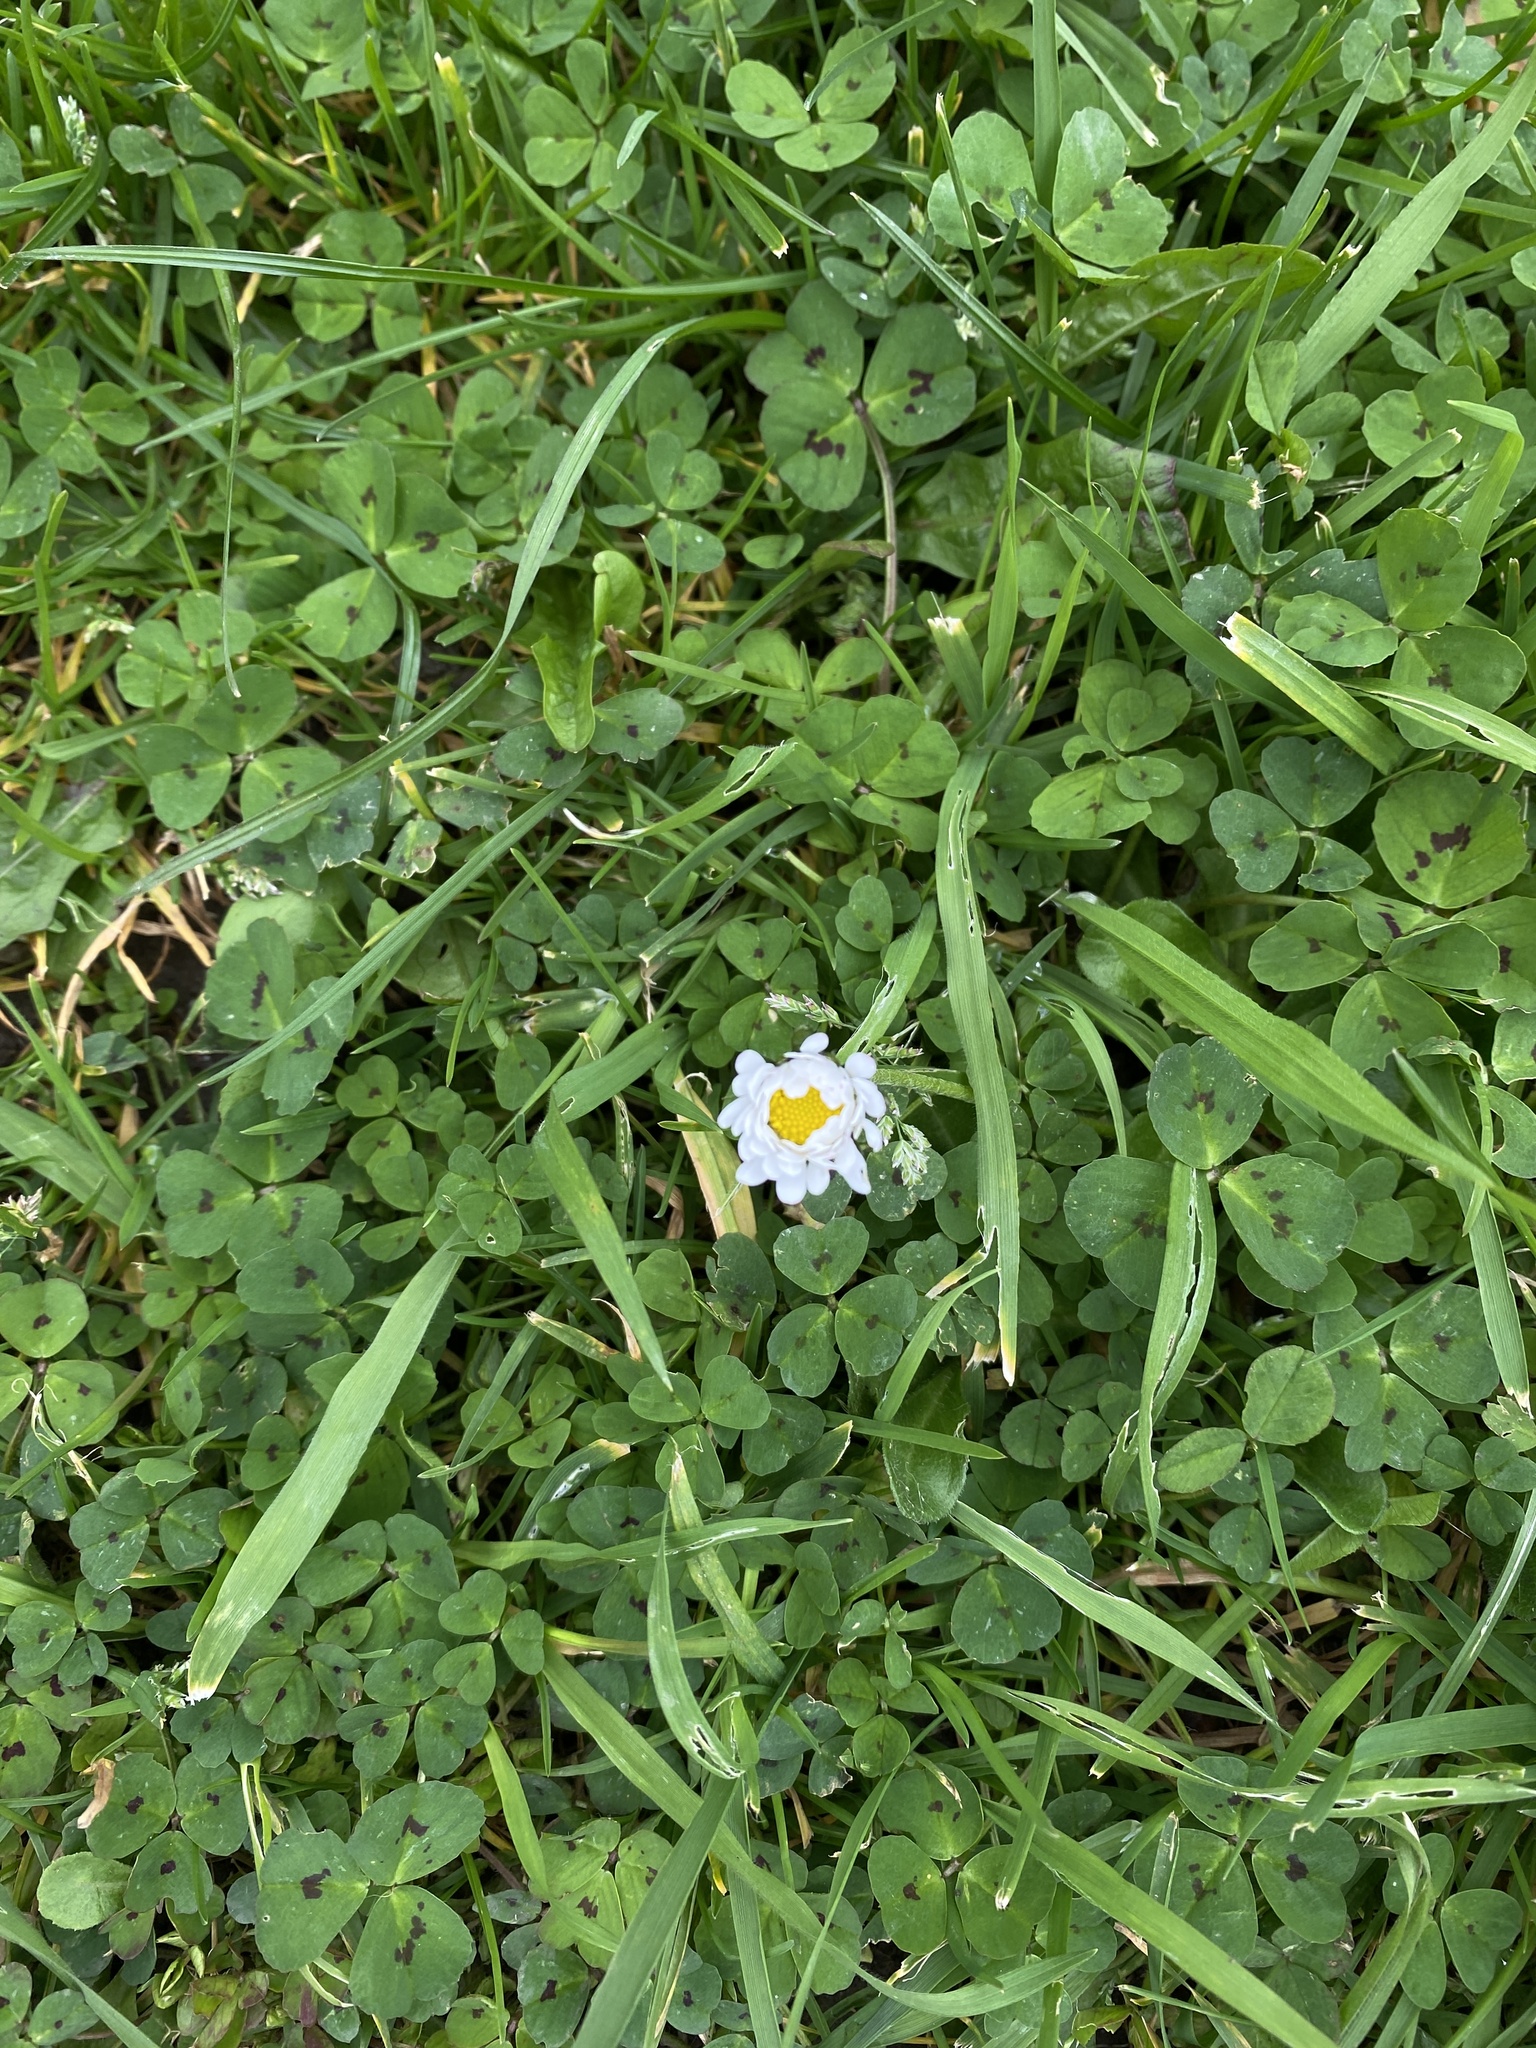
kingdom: Plantae
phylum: Tracheophyta
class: Magnoliopsida
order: Asterales
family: Asteraceae
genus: Bellis
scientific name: Bellis perennis
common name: Lawndaisy
